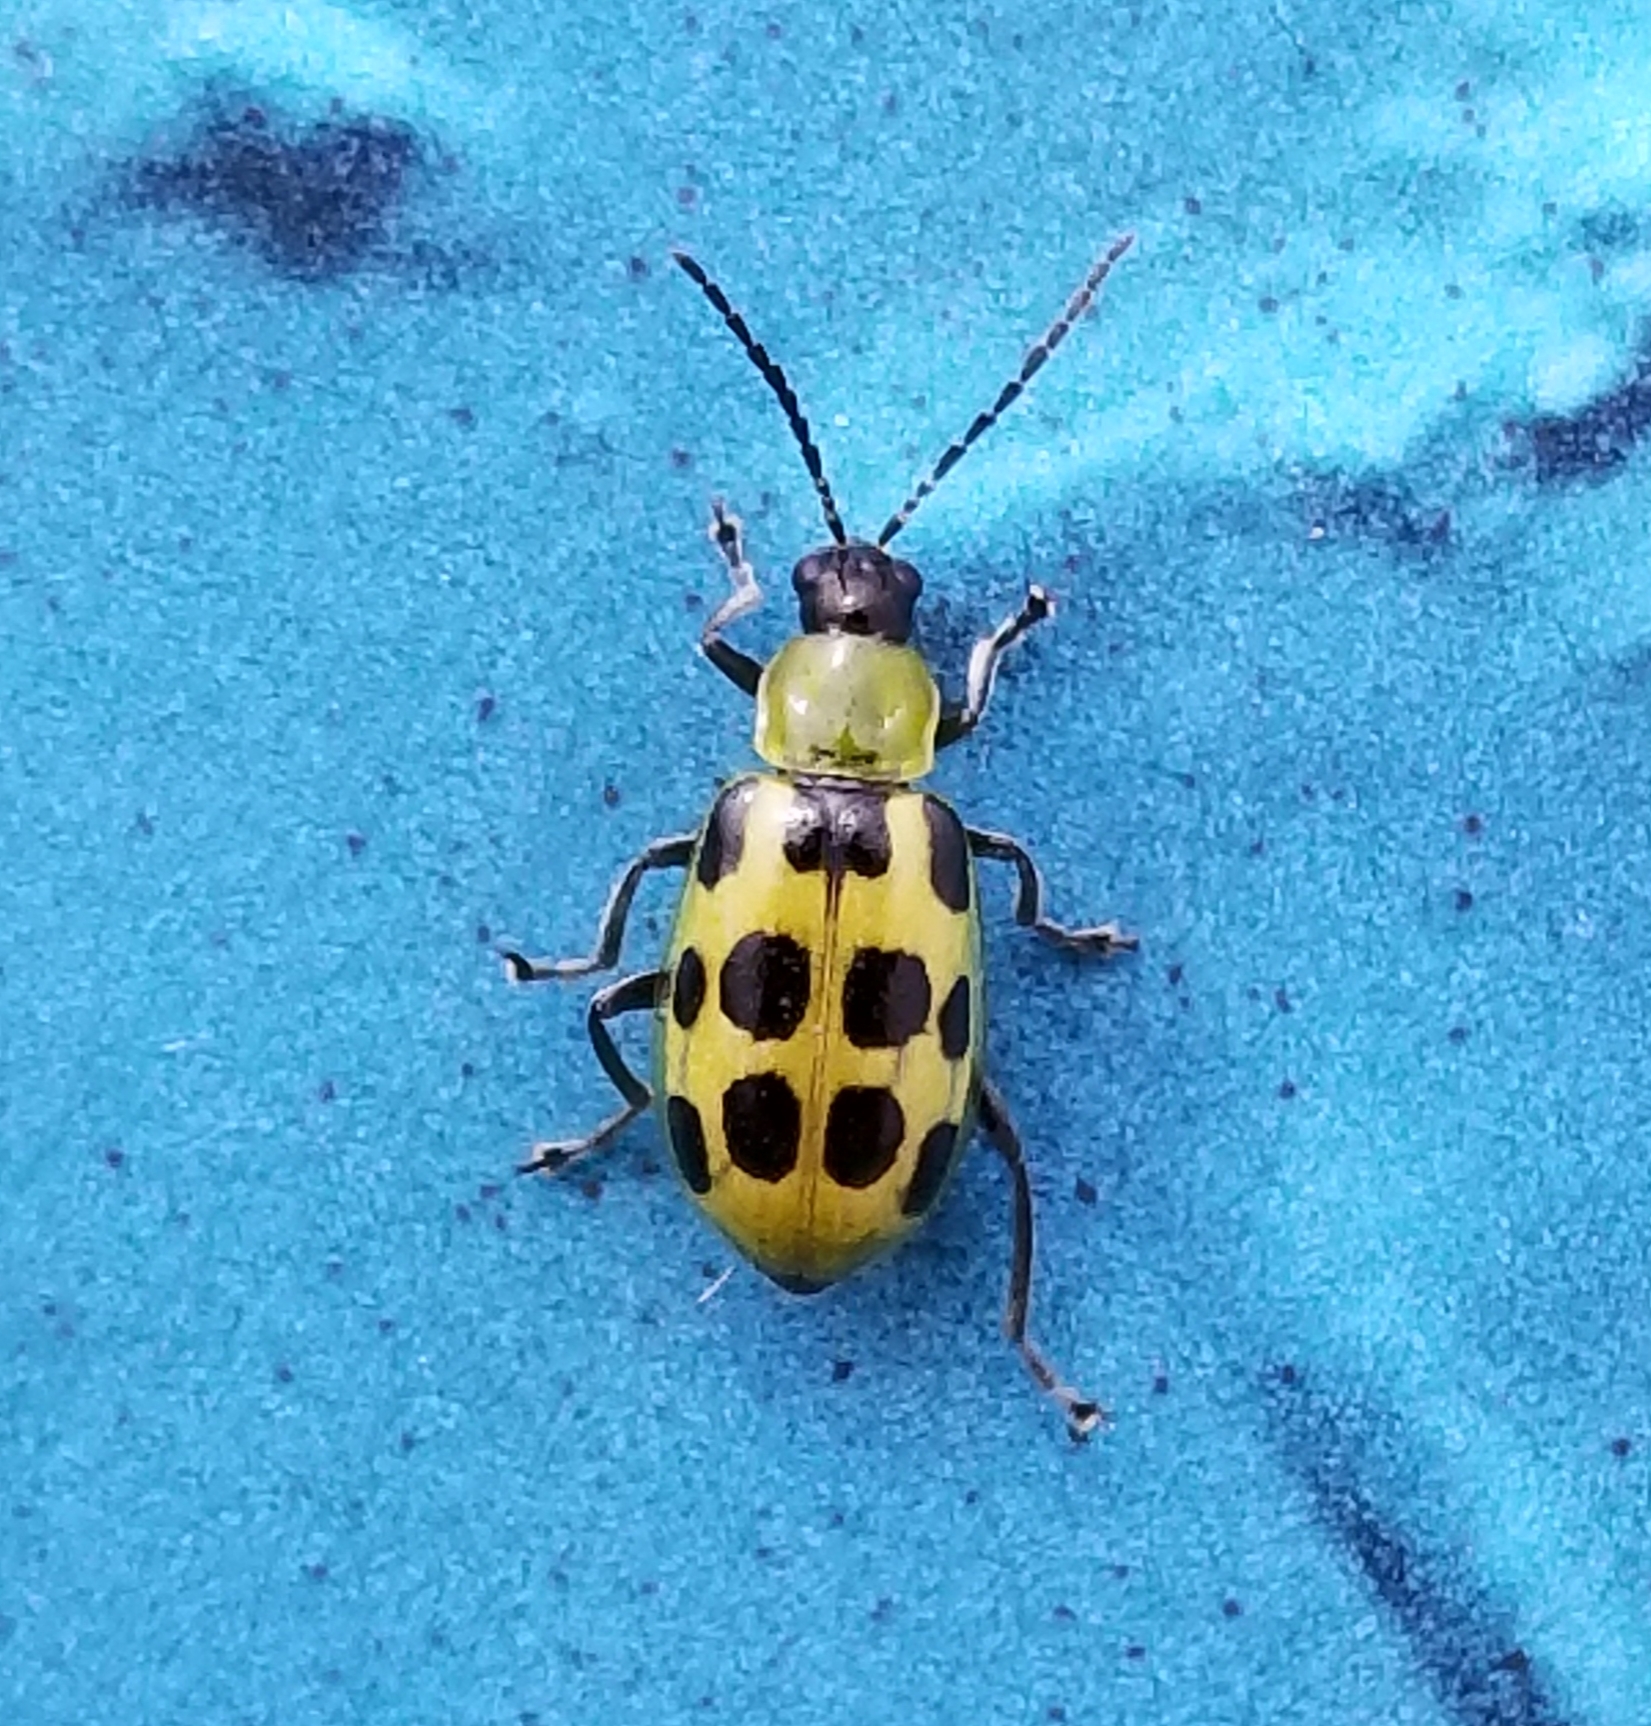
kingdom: Animalia
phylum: Arthropoda
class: Insecta
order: Coleoptera
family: Chrysomelidae
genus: Diabrotica
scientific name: Diabrotica undecimpunctata
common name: Spotted cucumber beetle
